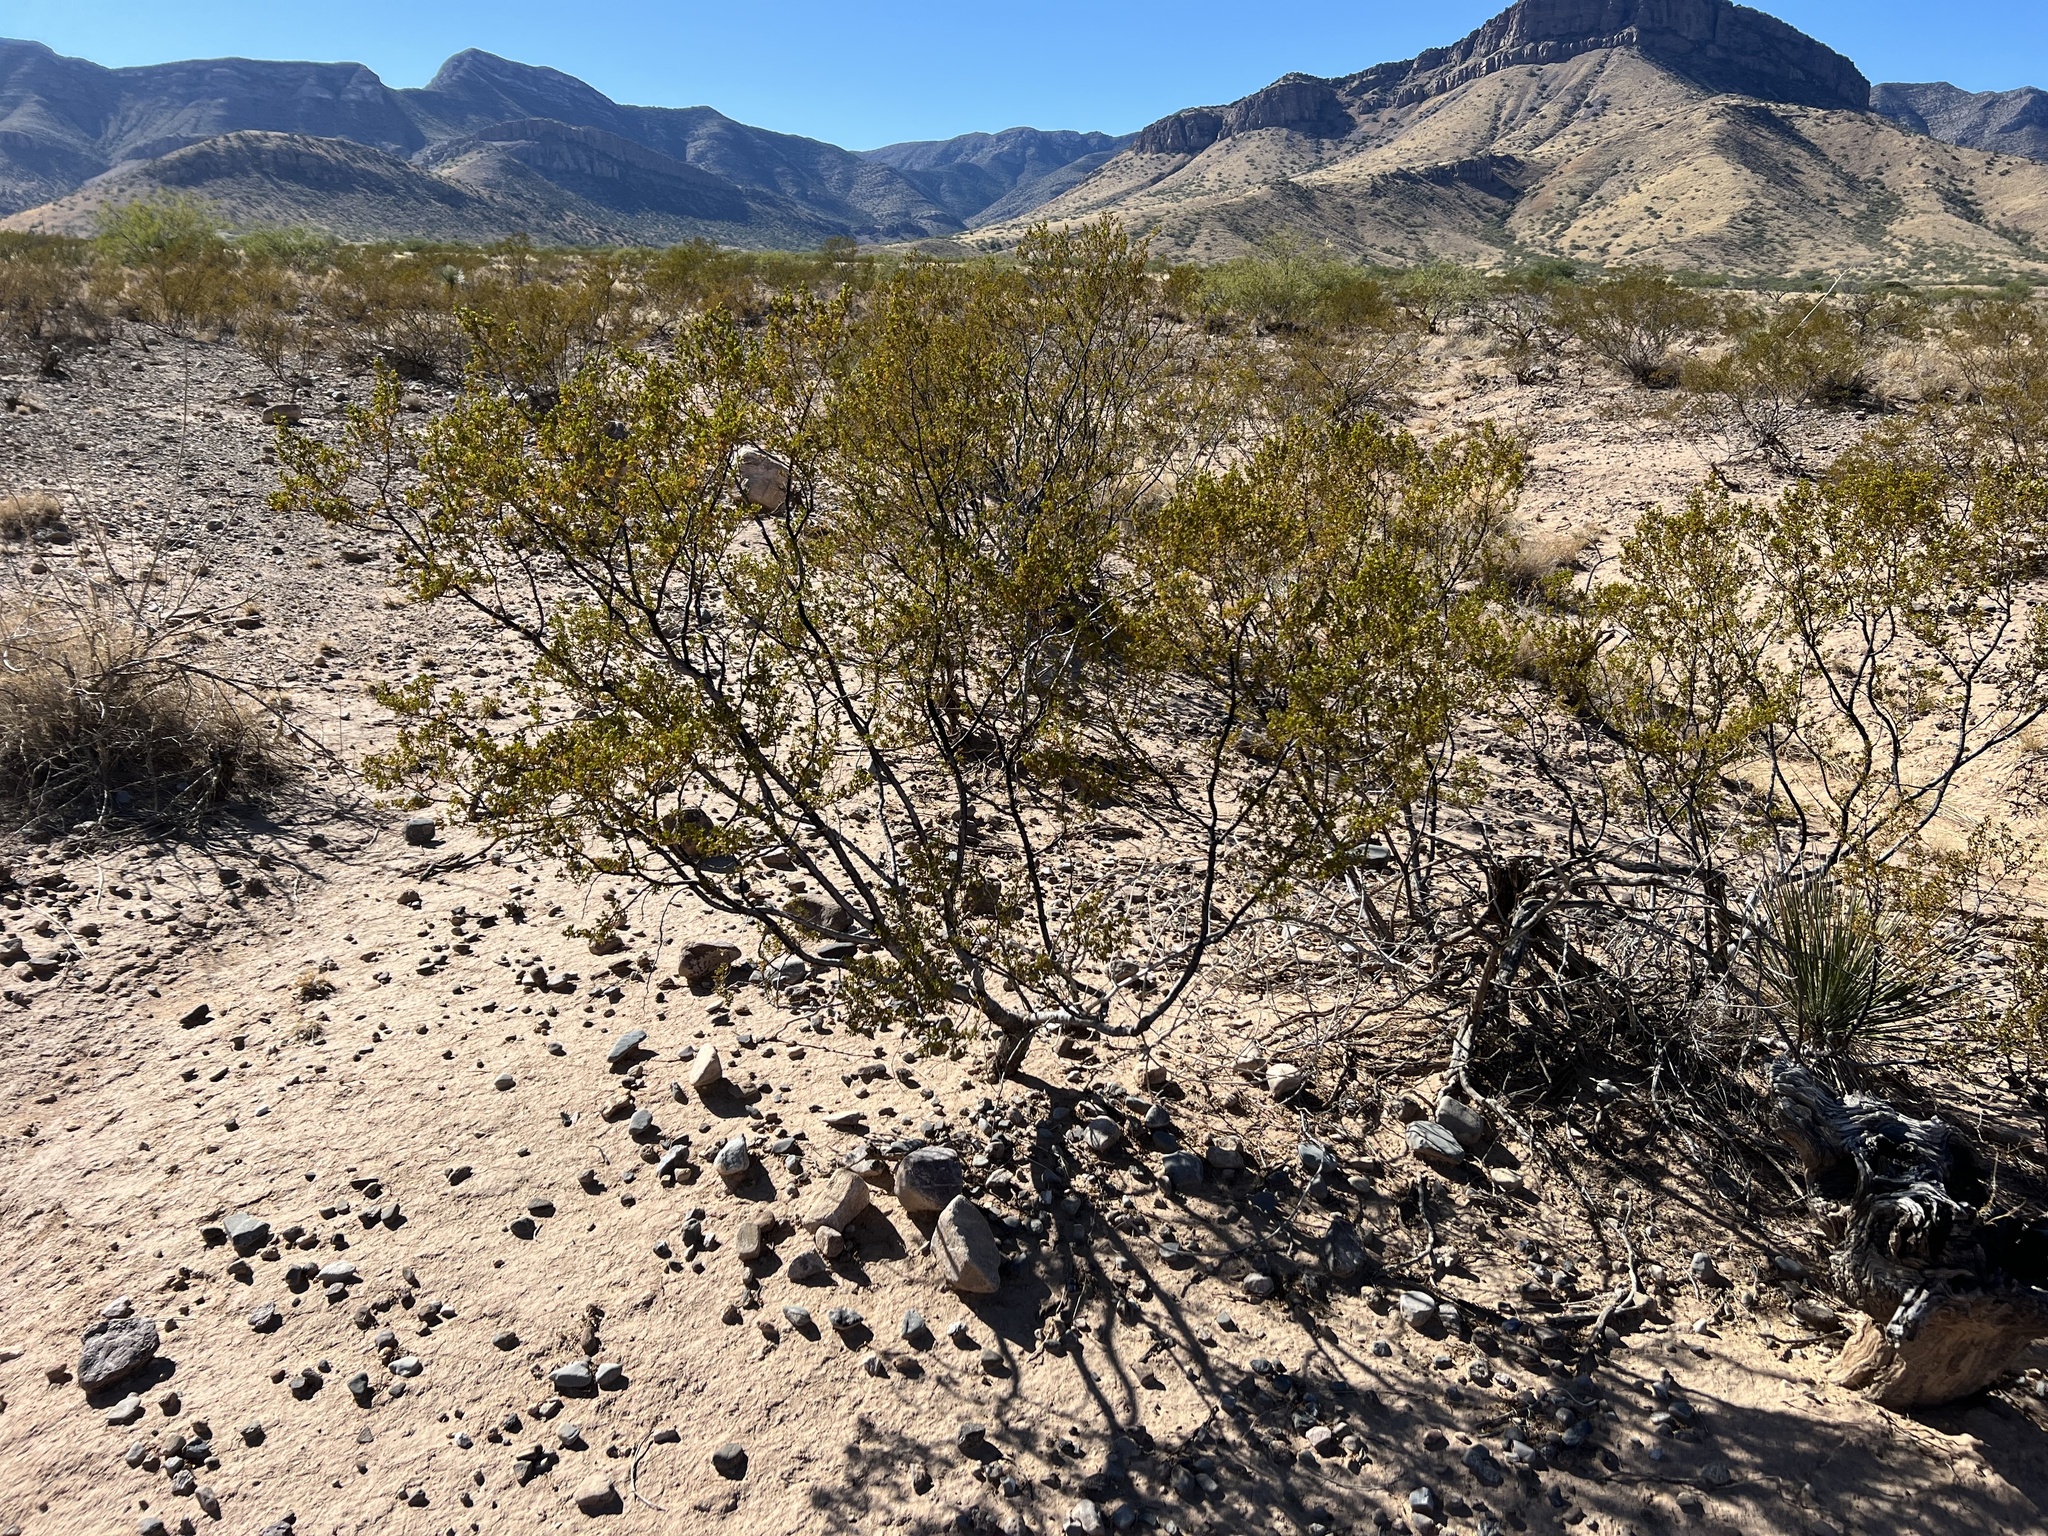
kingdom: Plantae
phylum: Tracheophyta
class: Magnoliopsida
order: Zygophyllales
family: Zygophyllaceae
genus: Larrea
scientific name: Larrea tridentata
